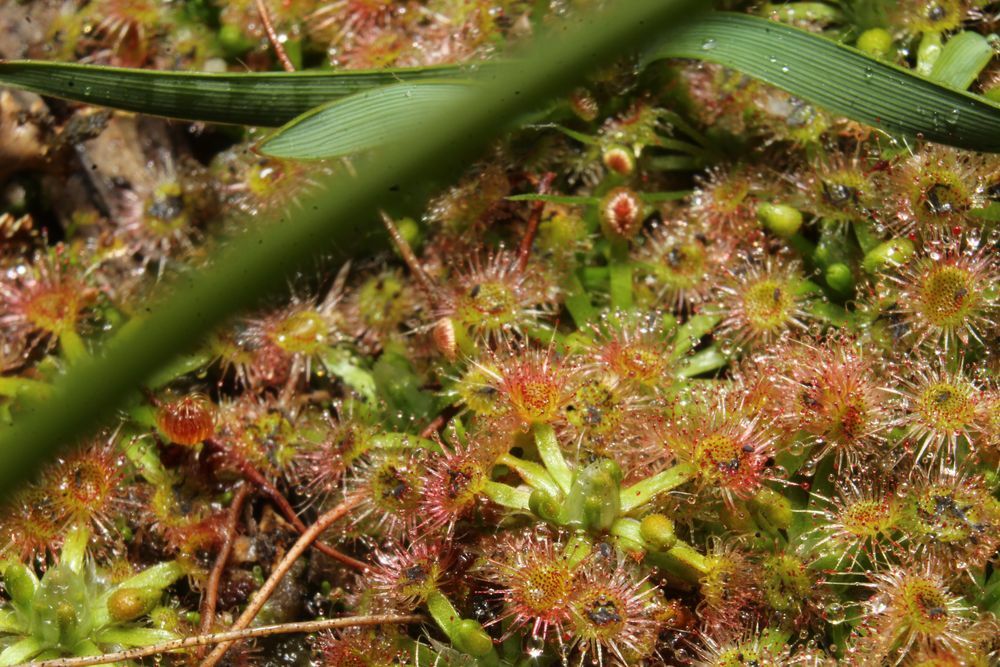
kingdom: Plantae
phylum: Tracheophyta
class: Magnoliopsida
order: Caryophyllales
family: Droseraceae
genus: Drosera
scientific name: Drosera androsacea
